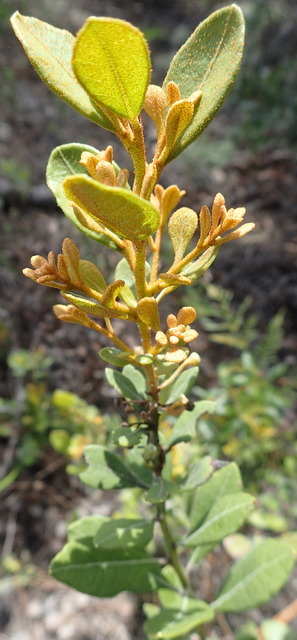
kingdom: Plantae
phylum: Tracheophyta
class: Magnoliopsida
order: Ericales
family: Ericaceae
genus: Lyonia
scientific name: Lyonia fruticosa
